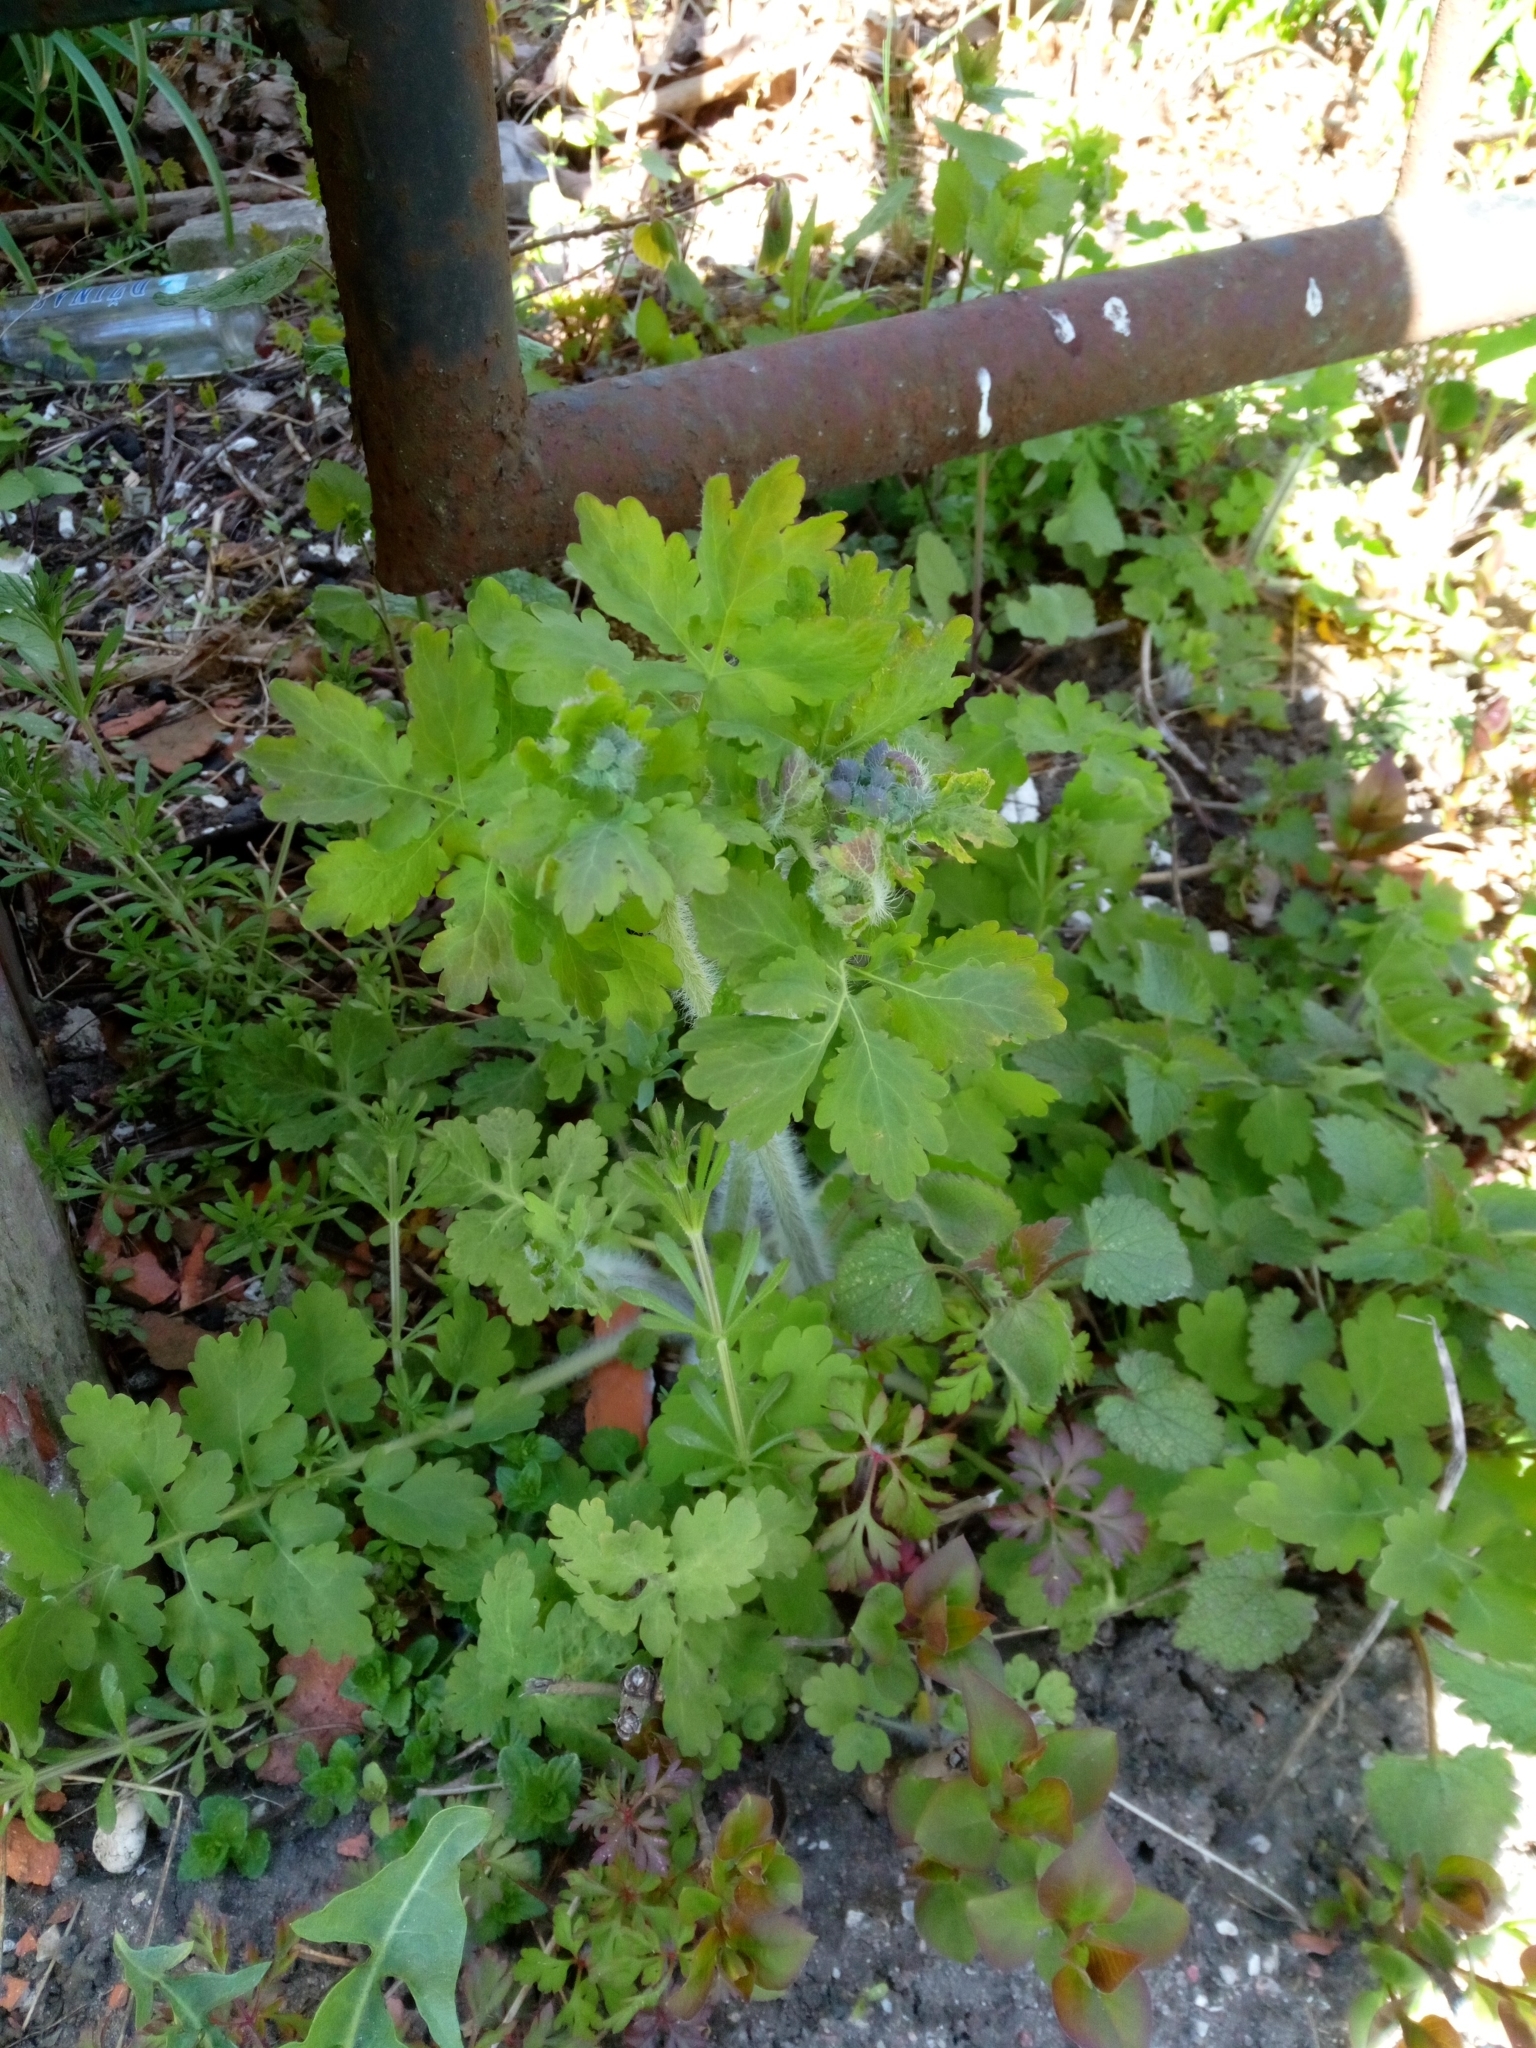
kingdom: Plantae
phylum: Tracheophyta
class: Magnoliopsida
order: Ranunculales
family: Papaveraceae
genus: Chelidonium
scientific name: Chelidonium majus
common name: Greater celandine
